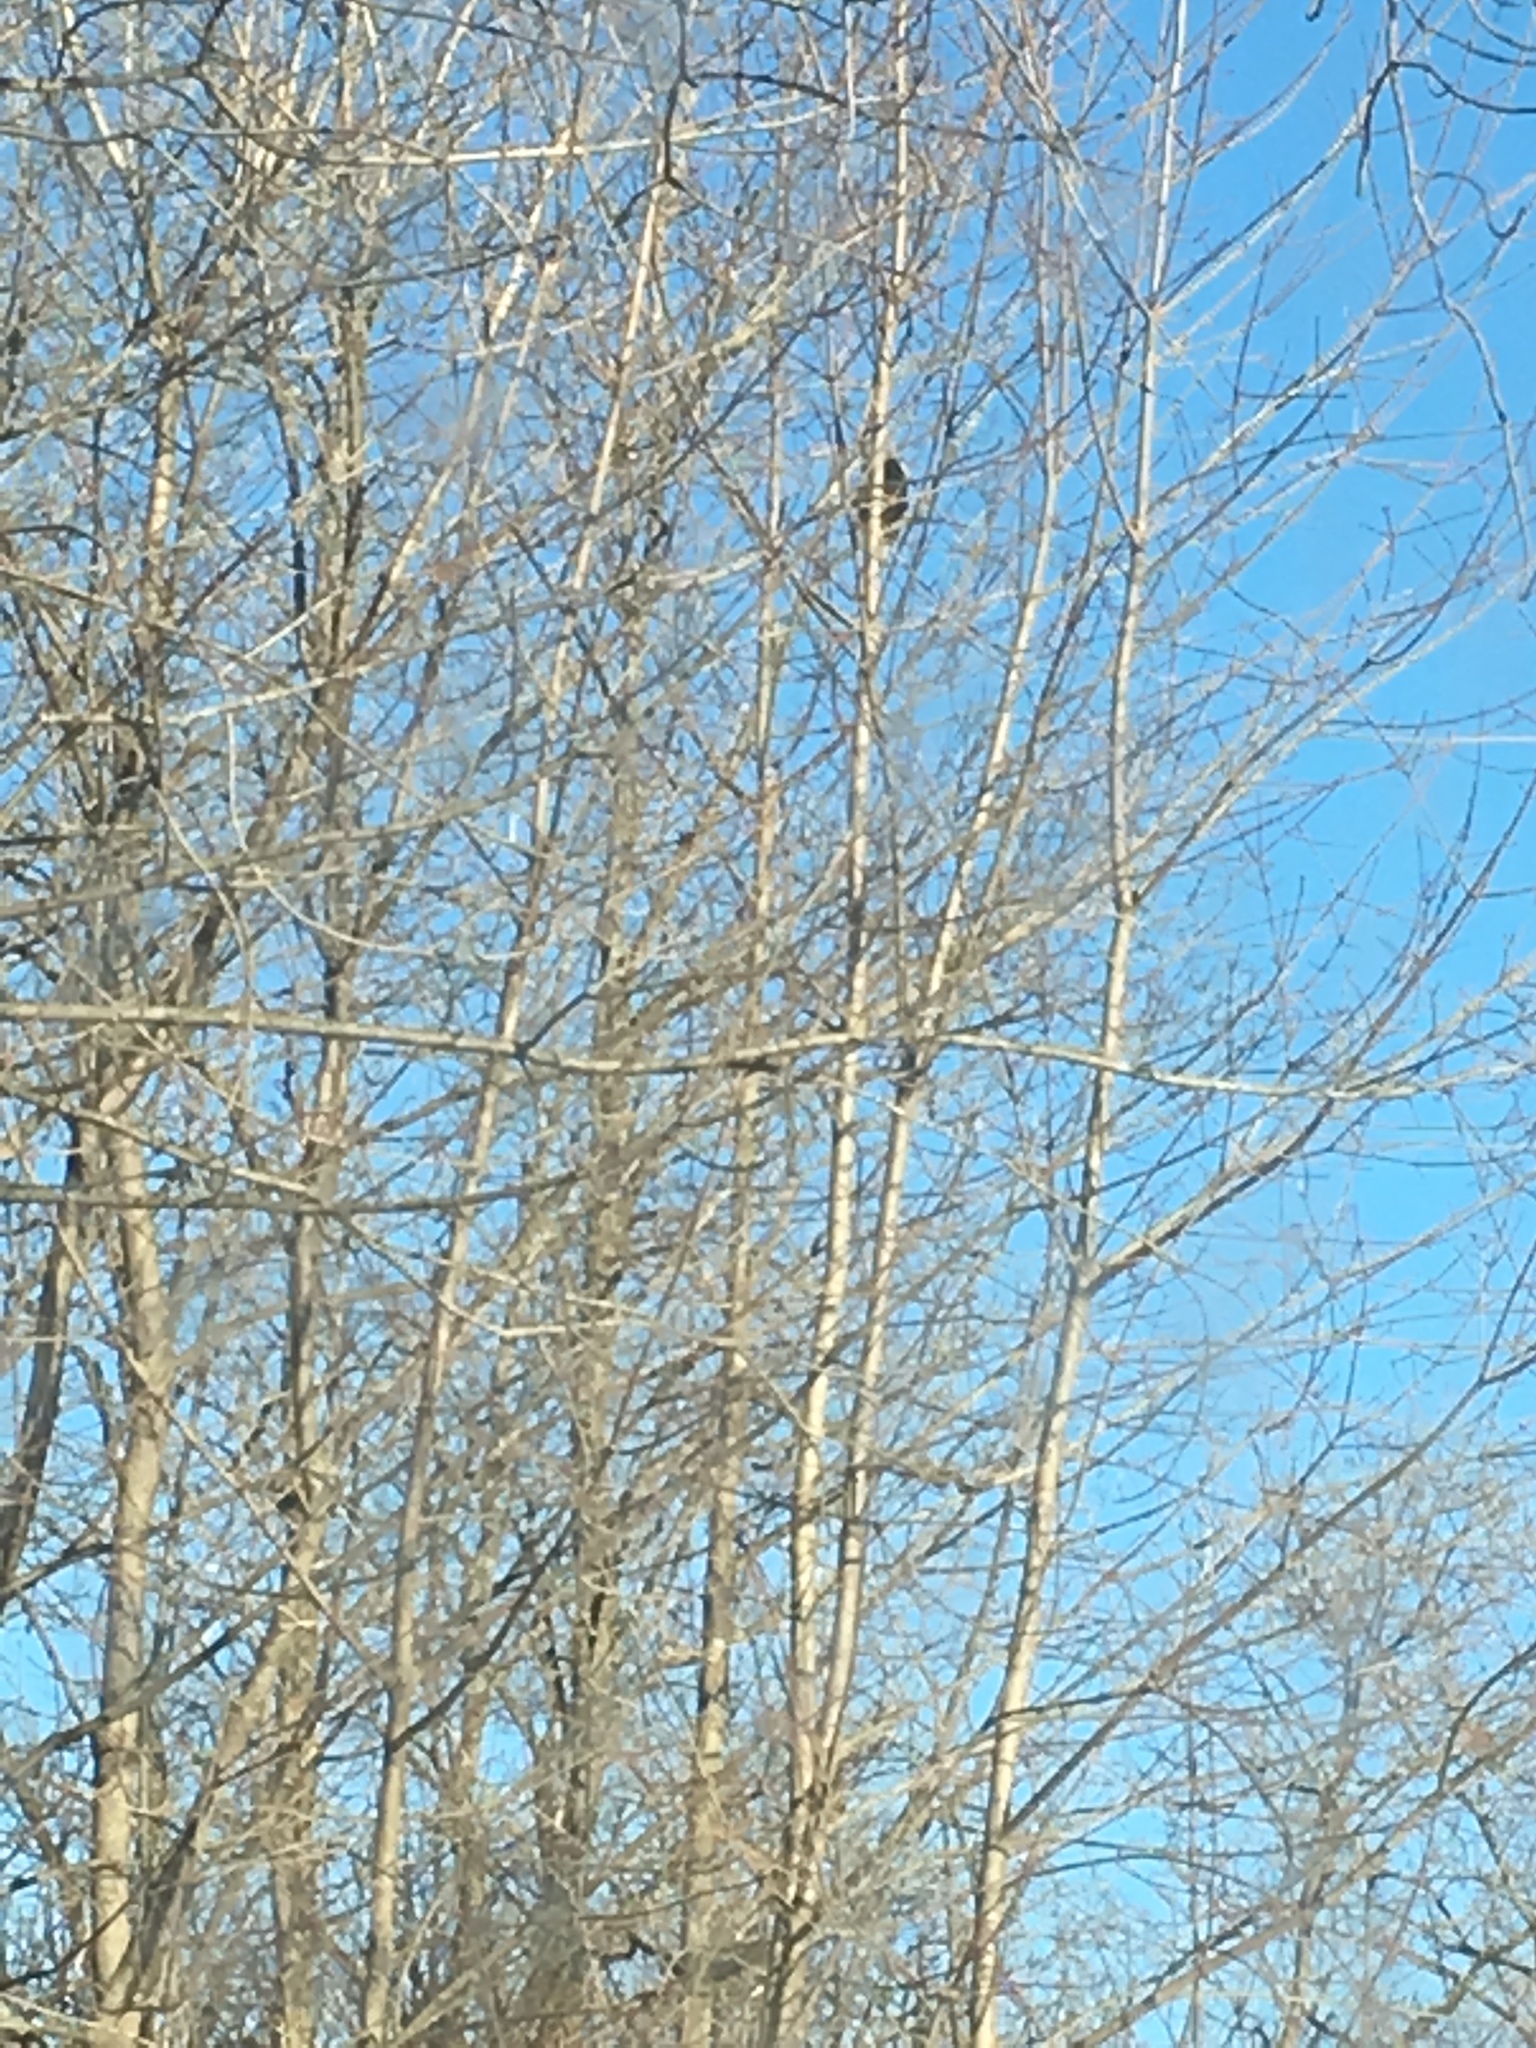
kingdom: Animalia
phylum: Chordata
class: Aves
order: Accipitriformes
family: Cathartidae
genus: Cathartes
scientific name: Cathartes aura
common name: Turkey vulture
